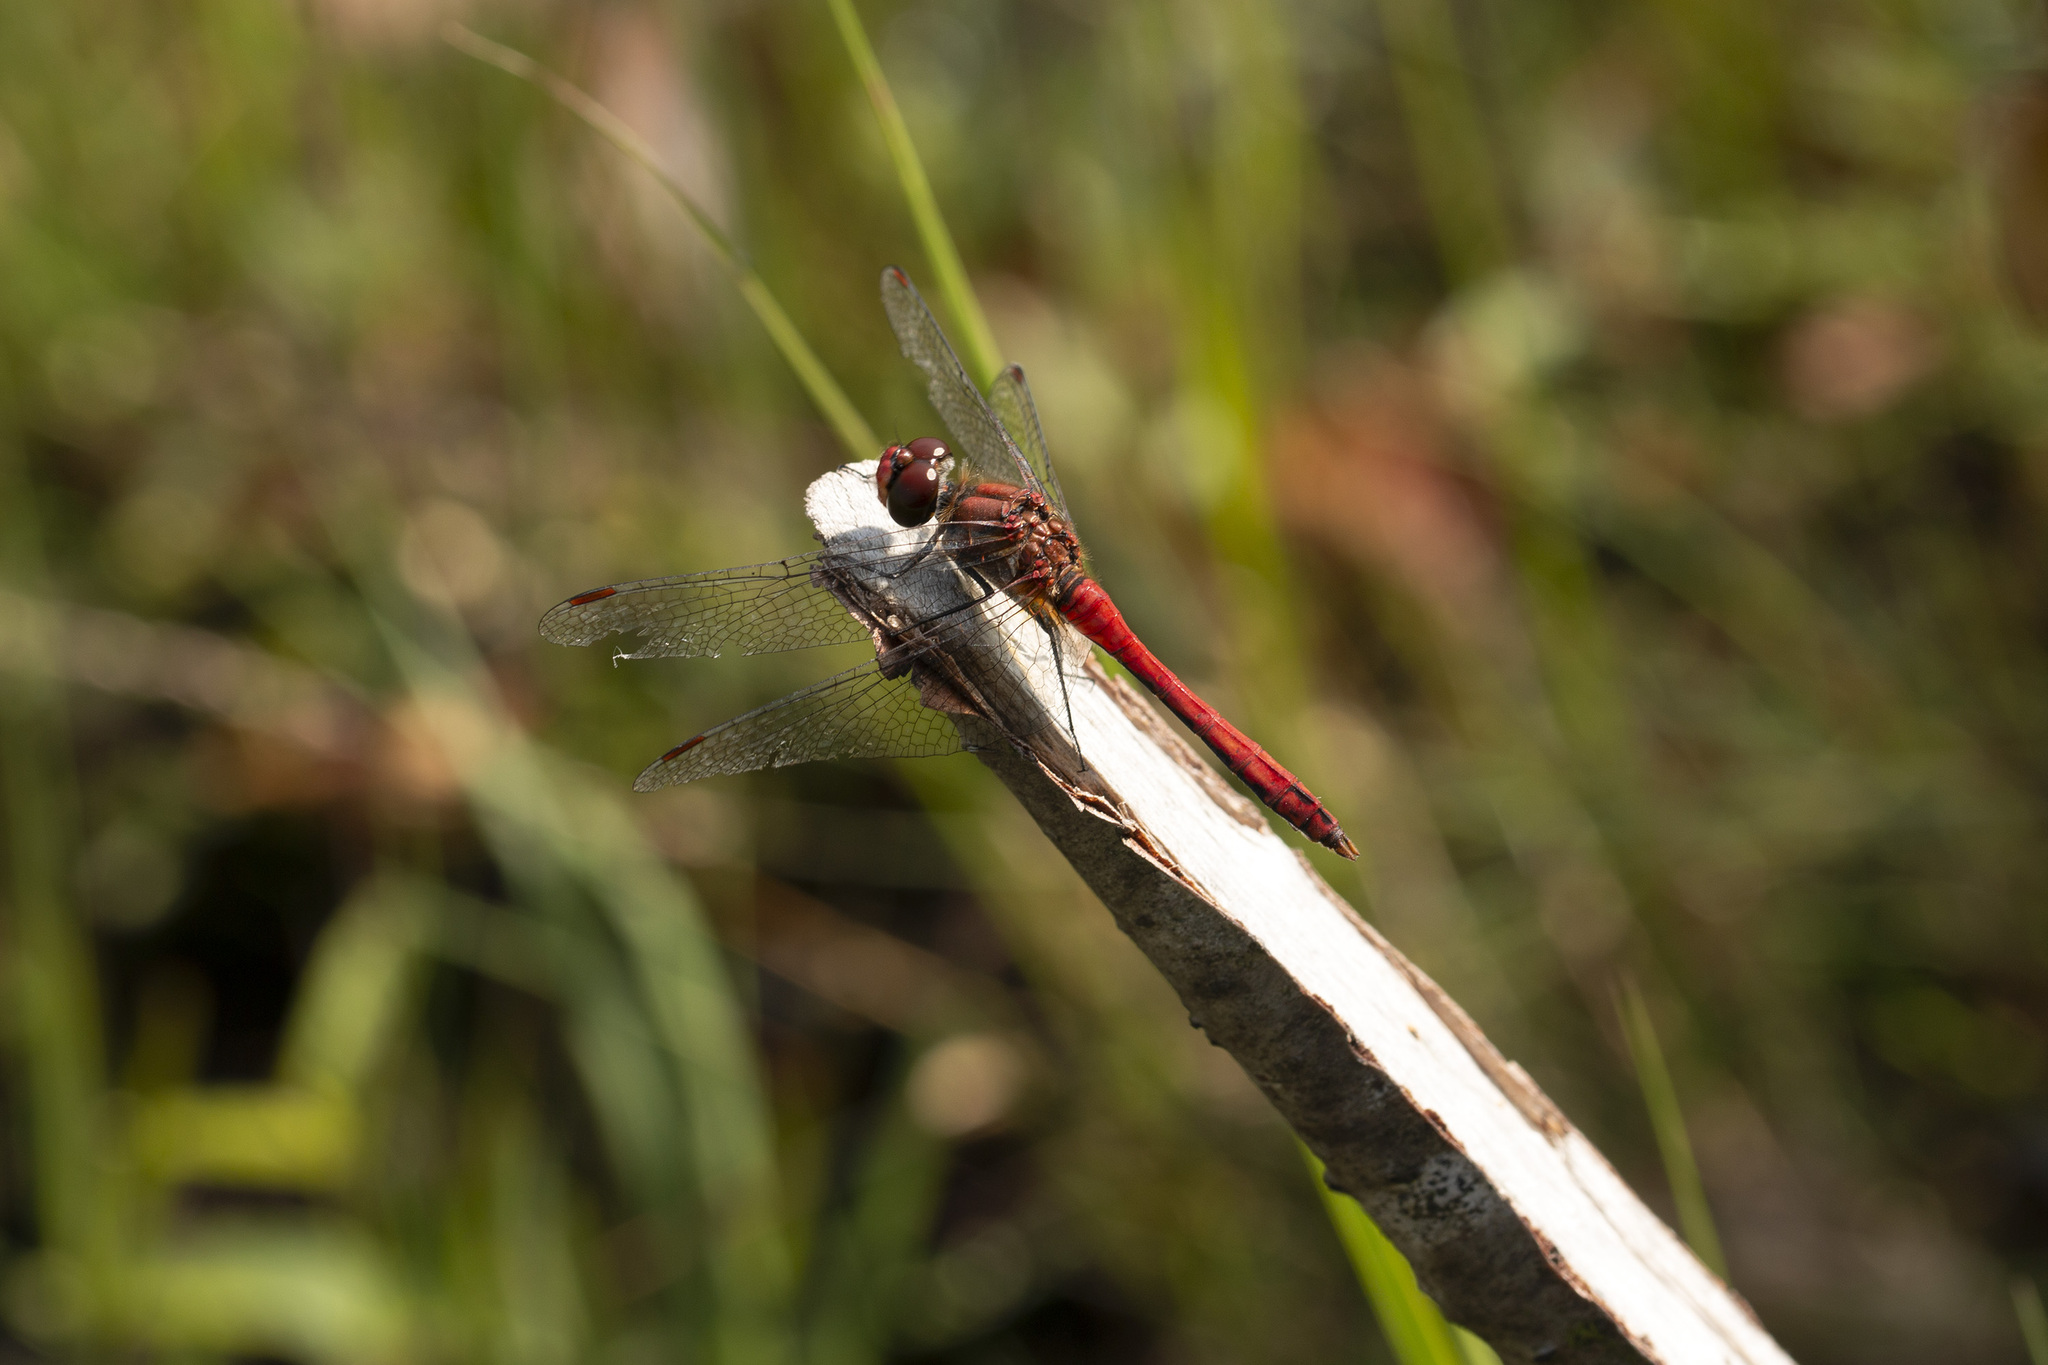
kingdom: Animalia
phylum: Arthropoda
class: Insecta
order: Odonata
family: Libellulidae
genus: Sympetrum
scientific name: Sympetrum sanguineum
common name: Ruddy darter
